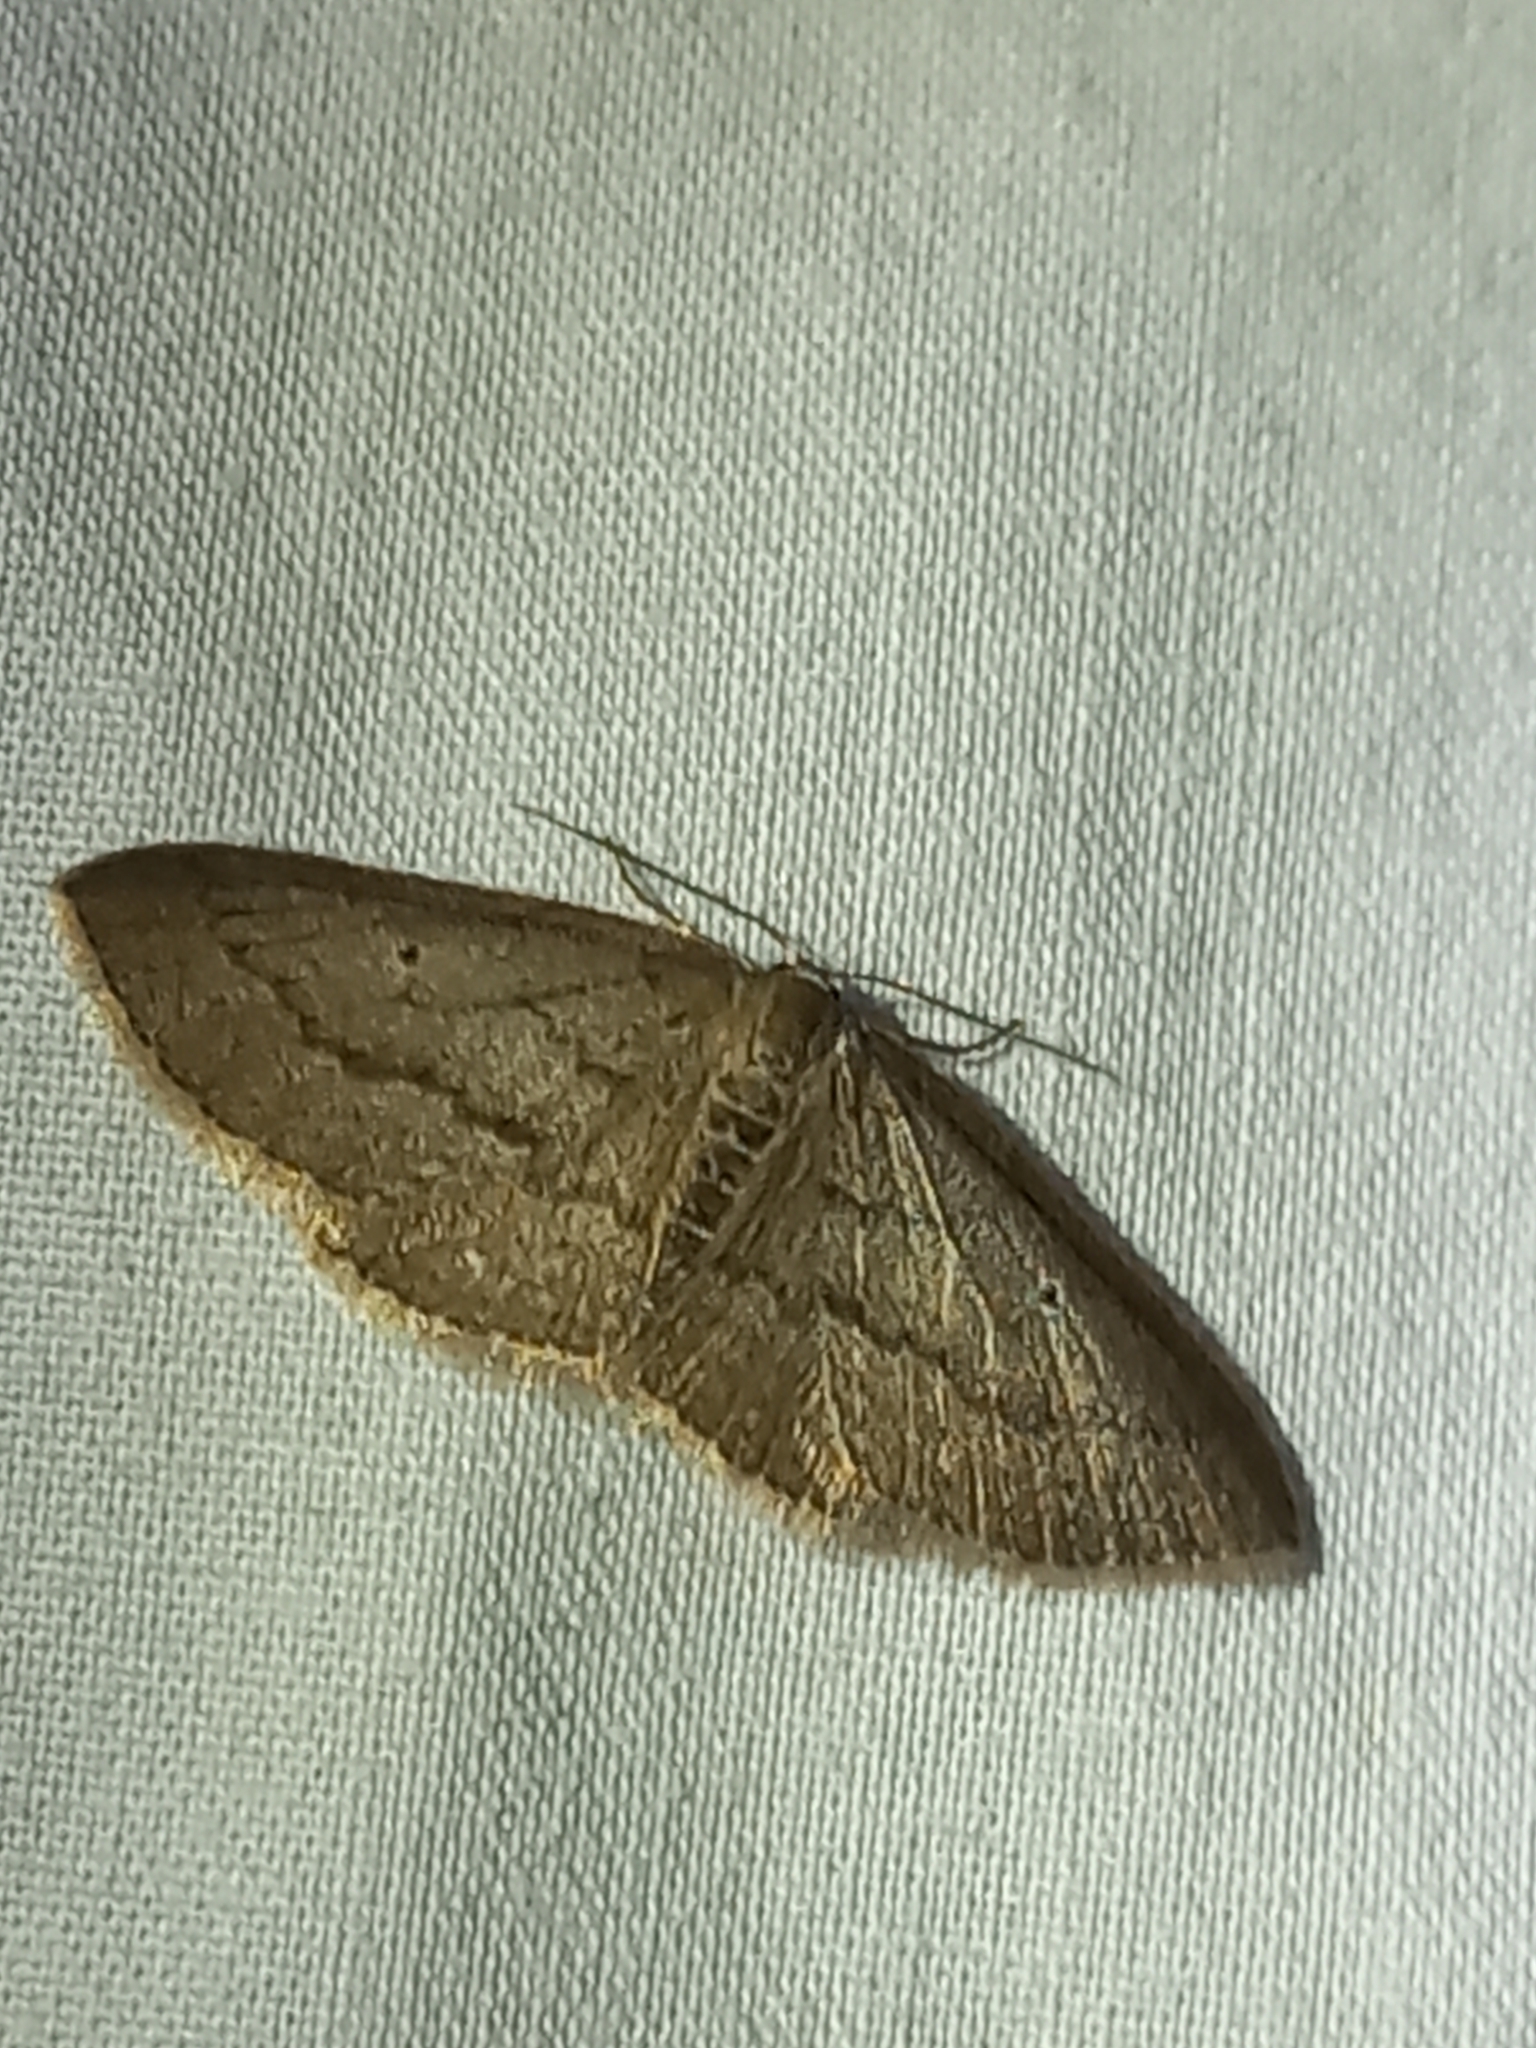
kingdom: Animalia
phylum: Arthropoda
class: Insecta
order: Lepidoptera
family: Geometridae
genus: Poecilasthena
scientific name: Poecilasthena schistaria
